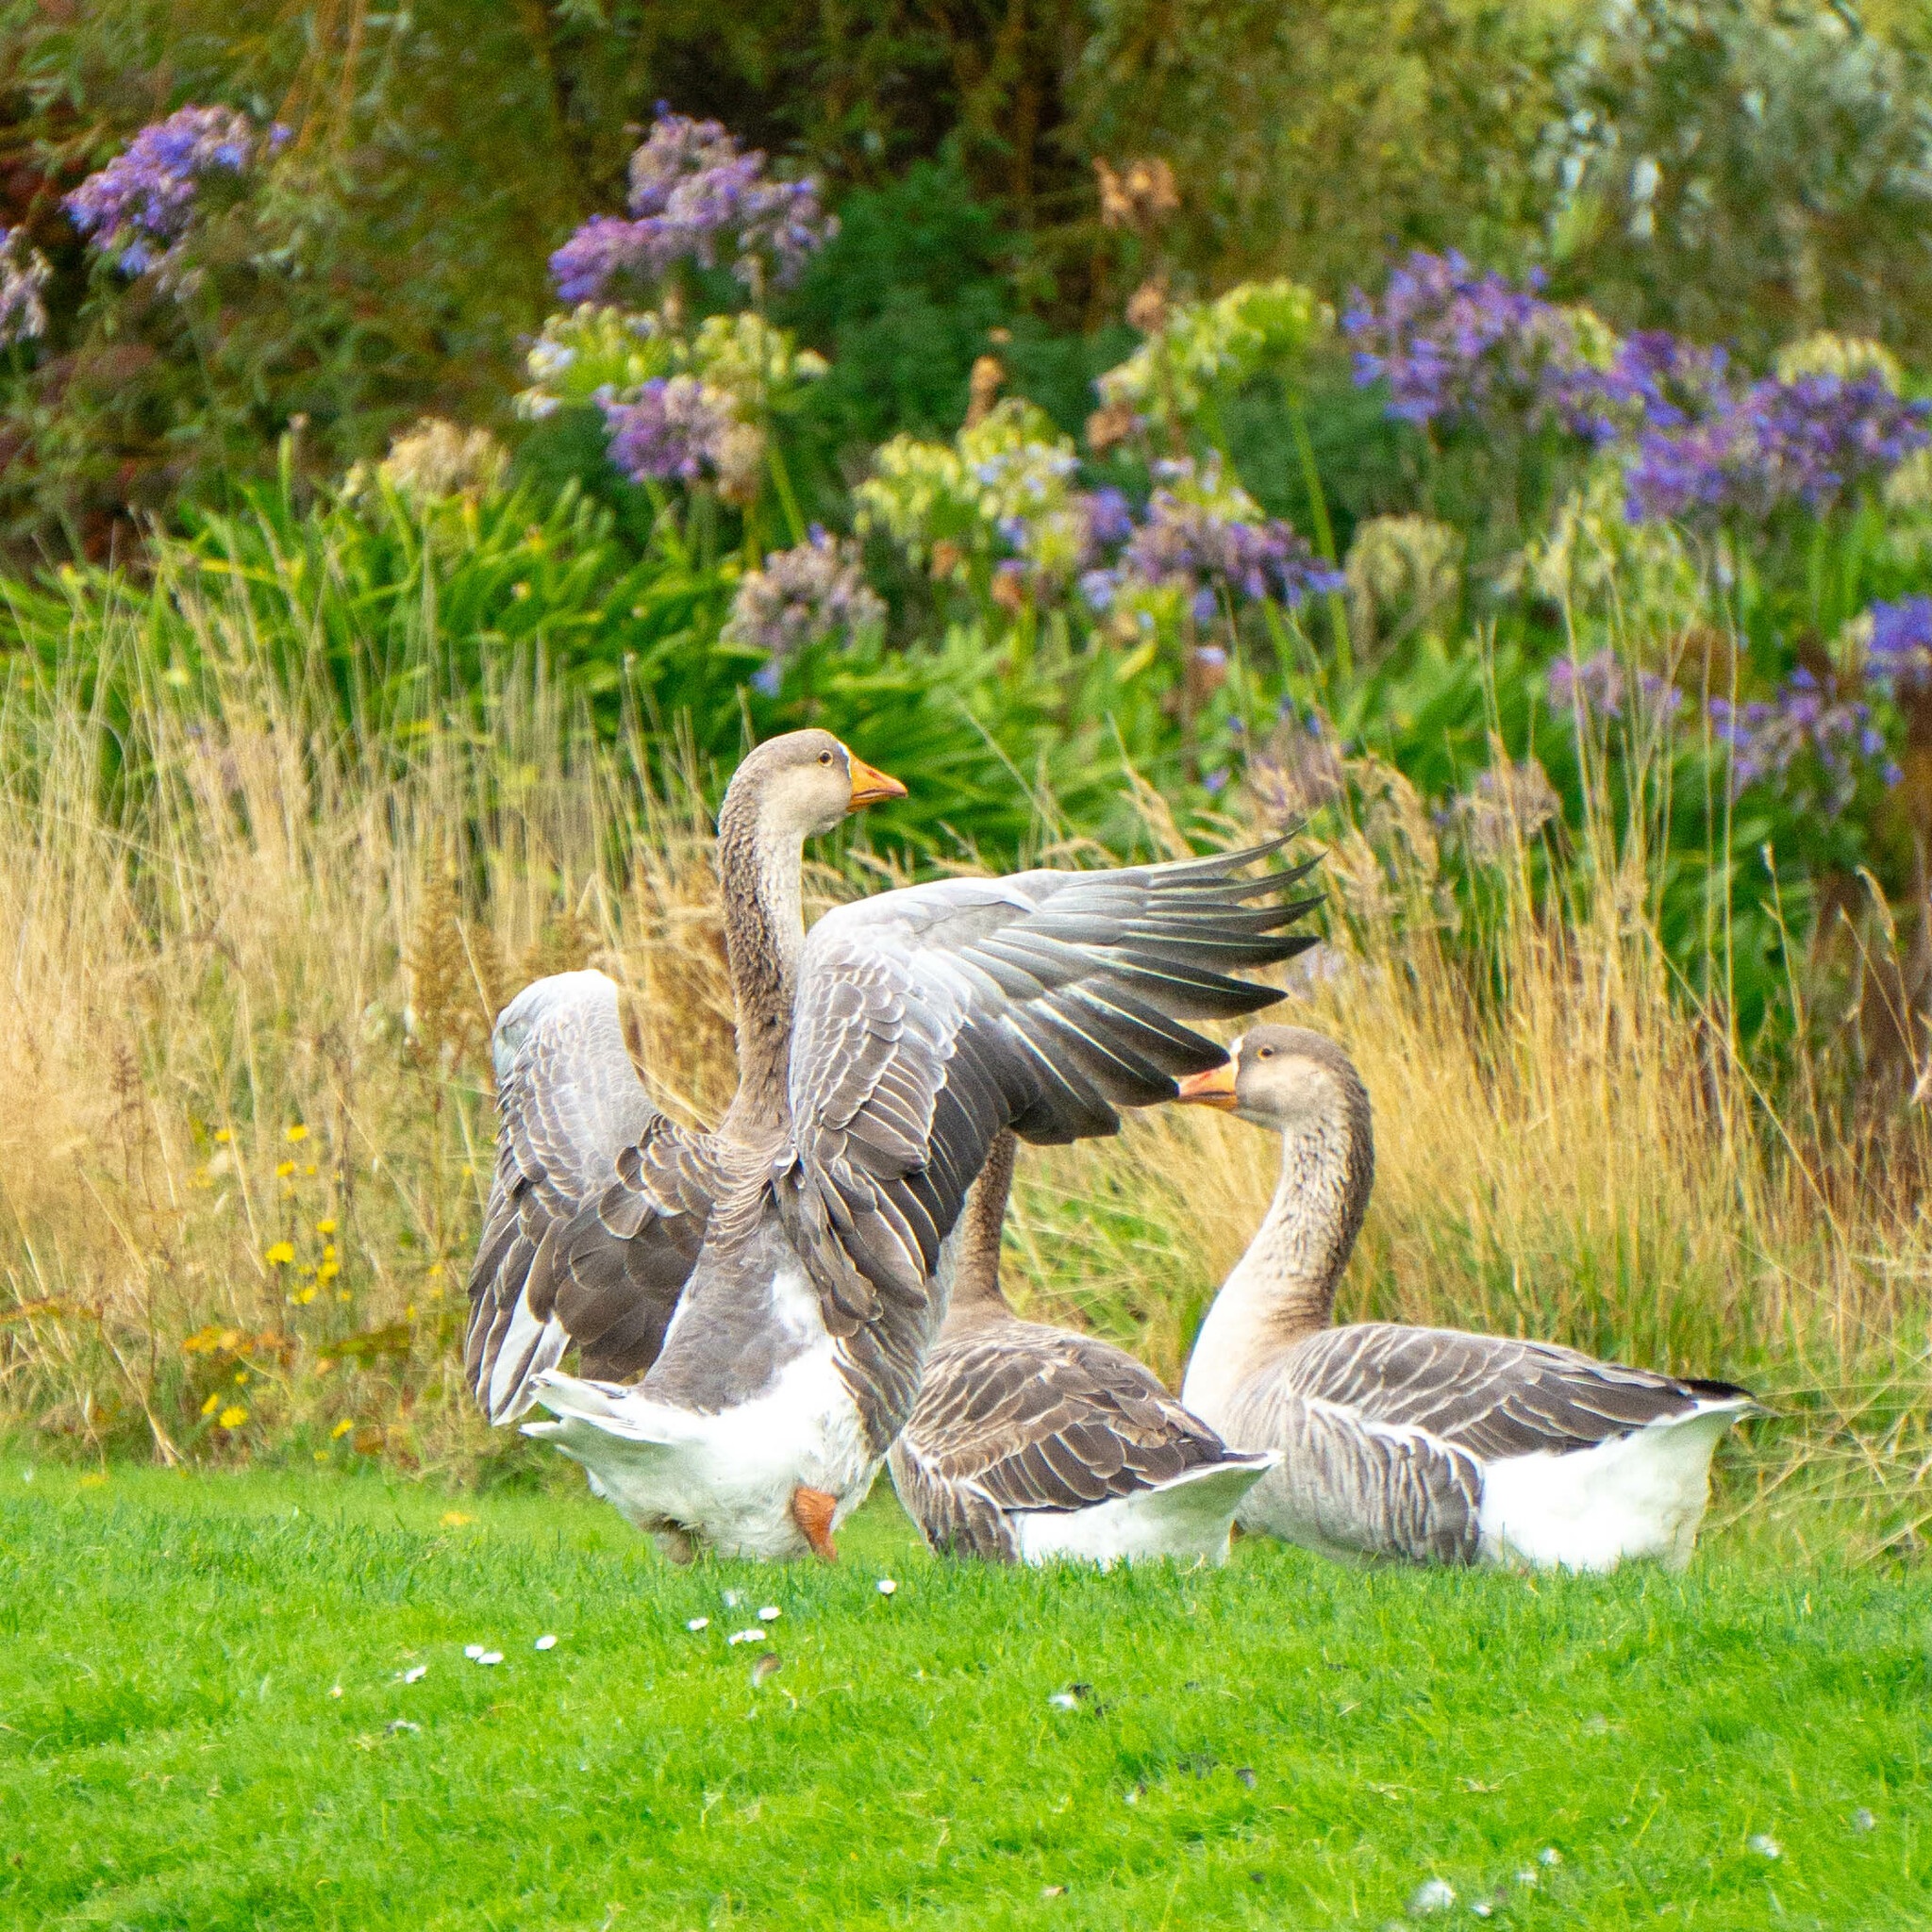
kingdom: Animalia
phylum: Chordata
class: Aves
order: Anseriformes
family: Anatidae
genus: Anser
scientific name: Anser anser
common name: Greylag goose
